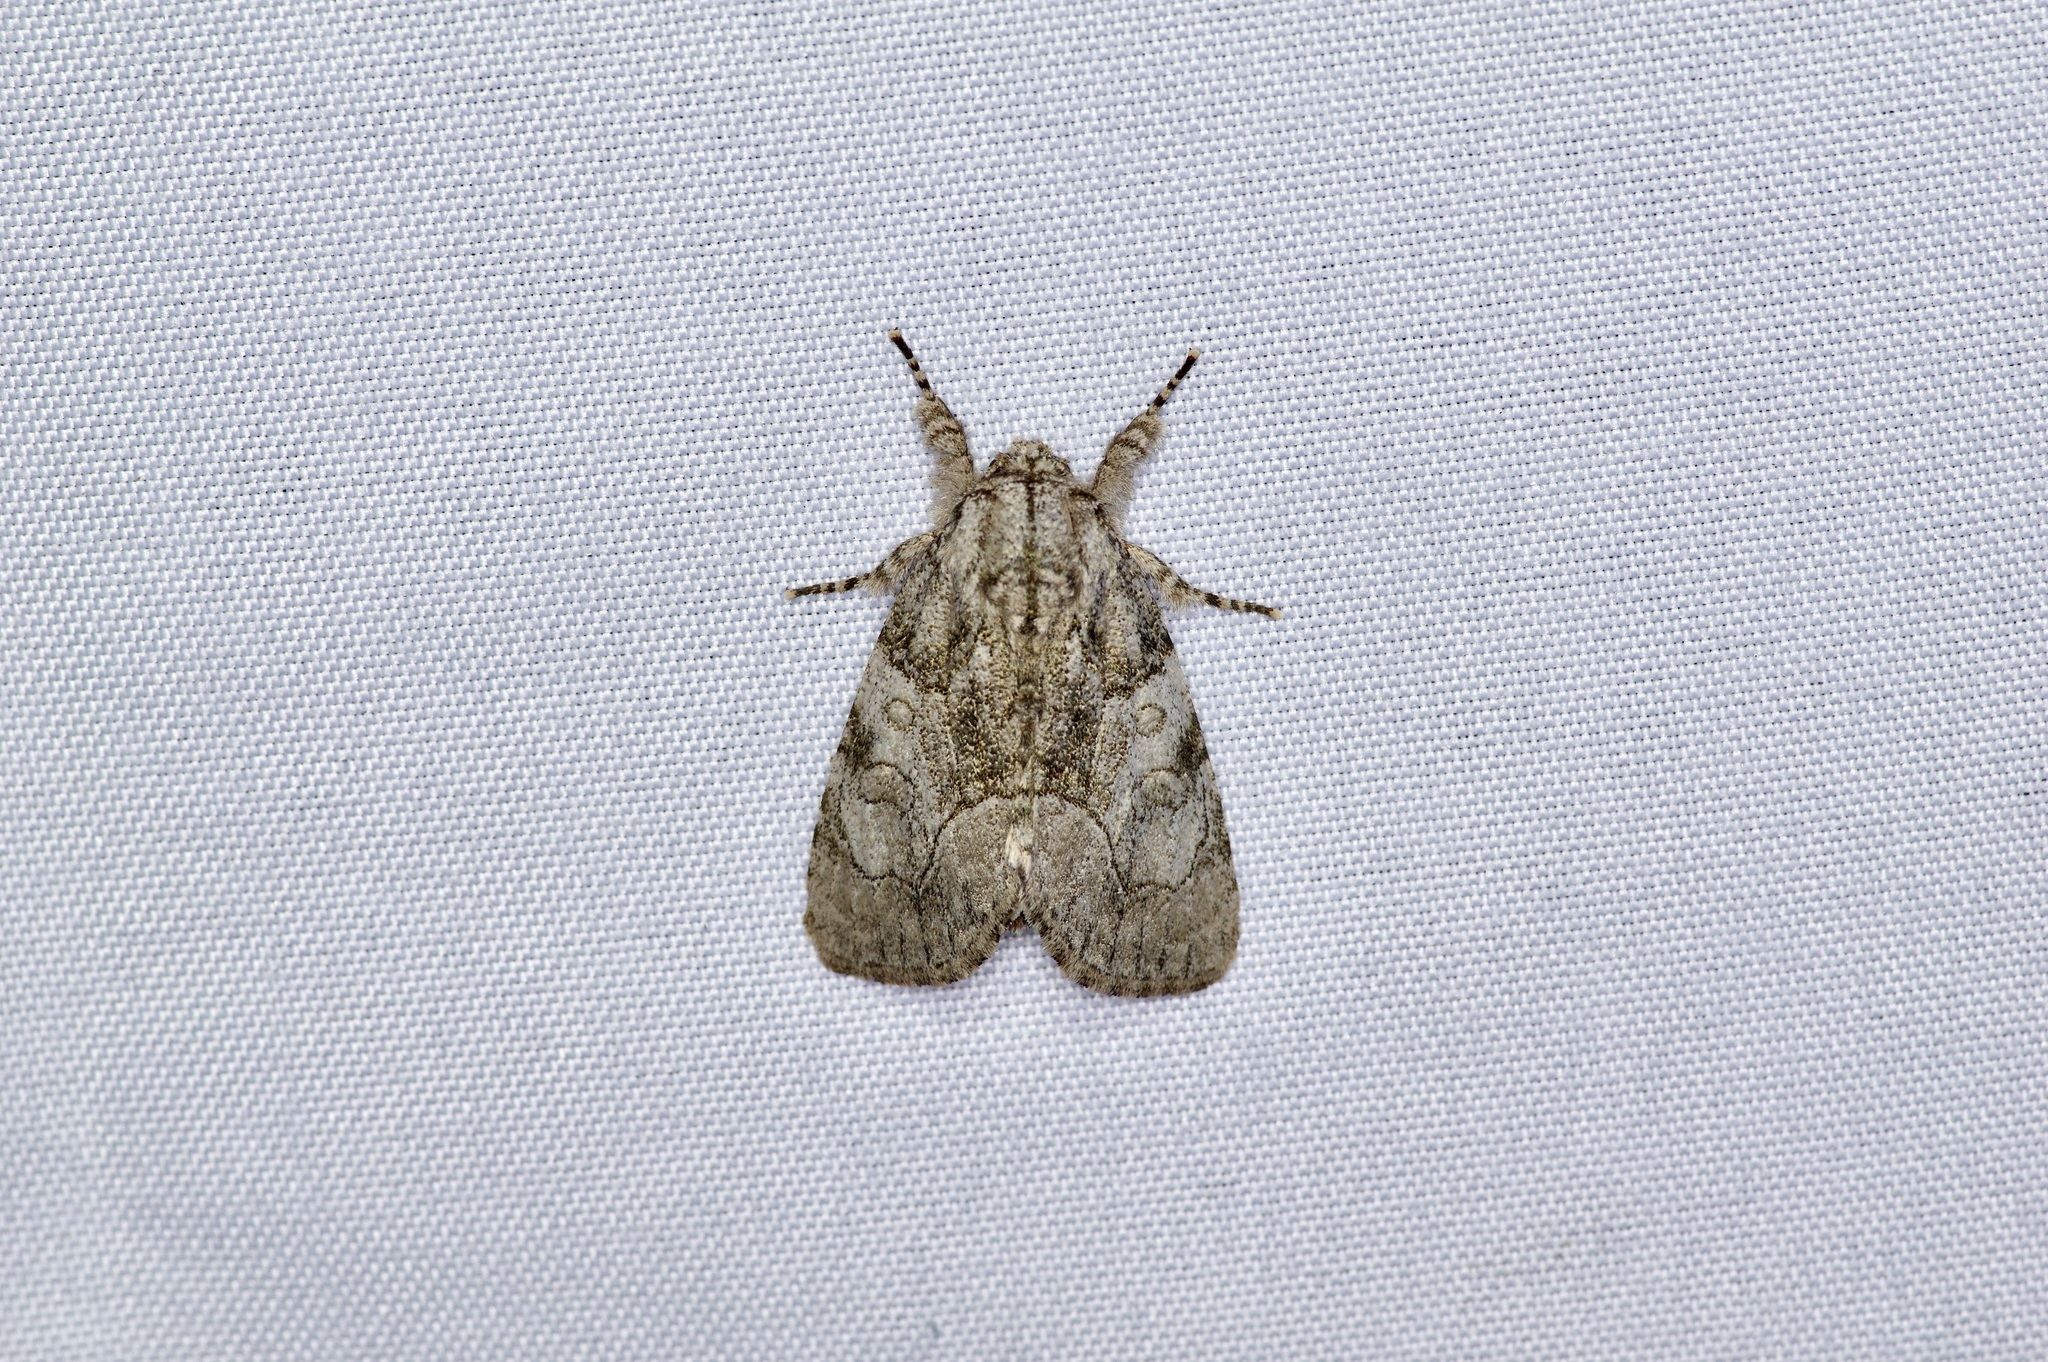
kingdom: Animalia
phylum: Arthropoda
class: Insecta
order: Lepidoptera
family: Noctuidae
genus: Raphia
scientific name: Raphia frater
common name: Brother
